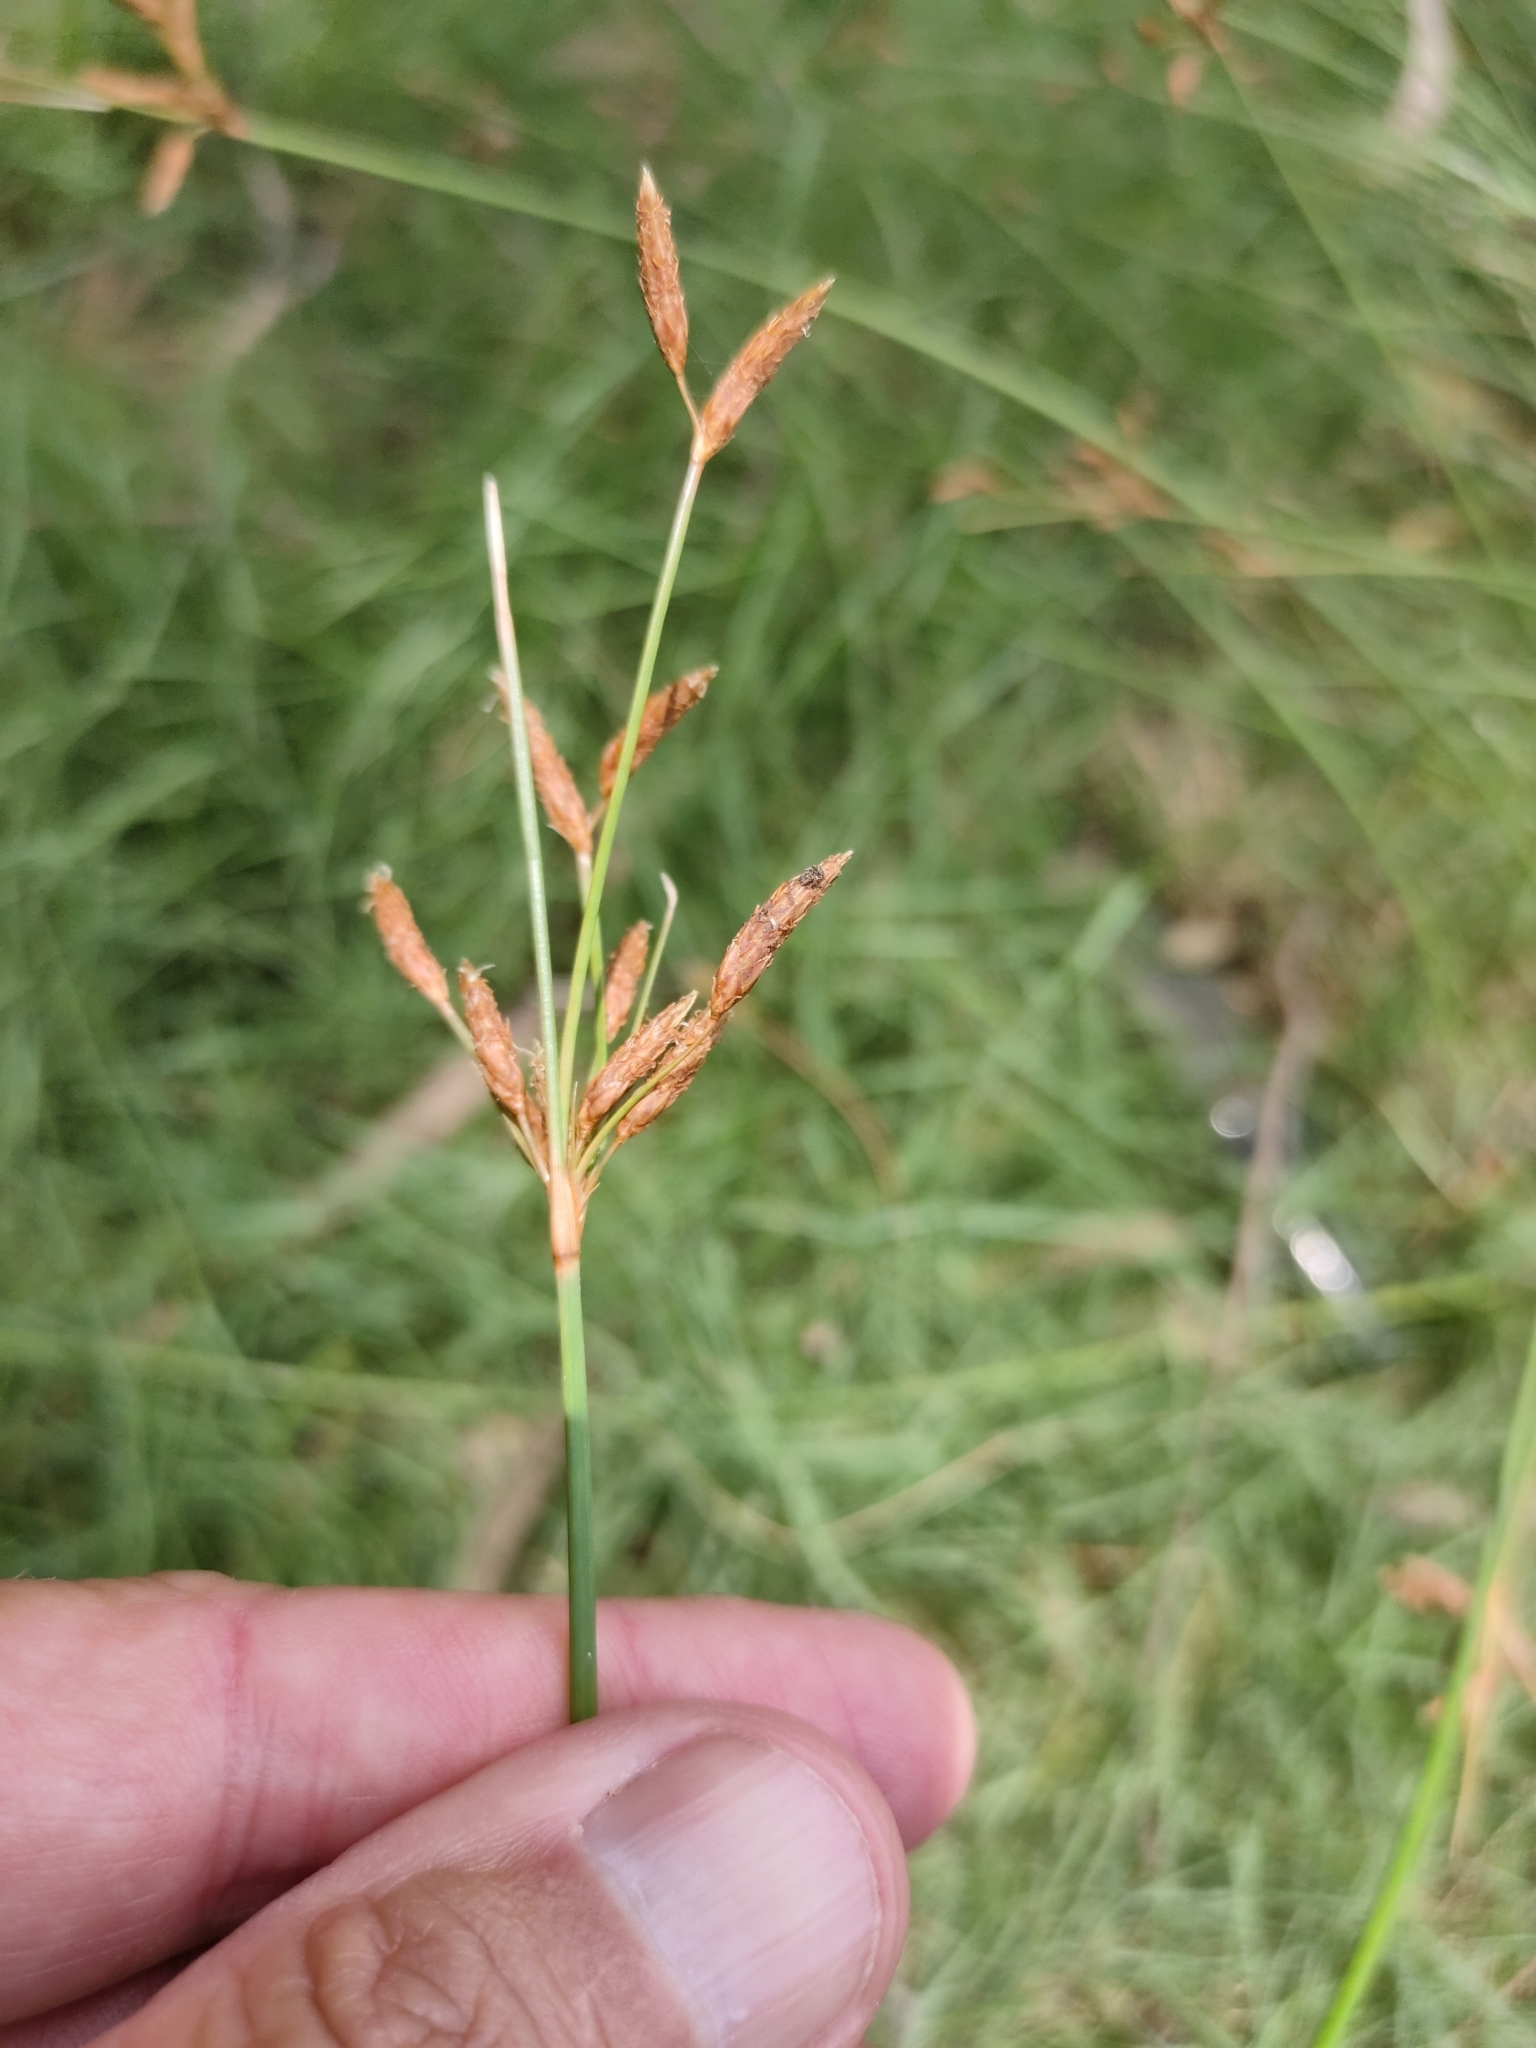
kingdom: Plantae
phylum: Tracheophyta
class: Liliopsida
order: Poales
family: Cyperaceae
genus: Fimbristylis
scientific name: Fimbristylis ferruginea
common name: West indian fimbry
